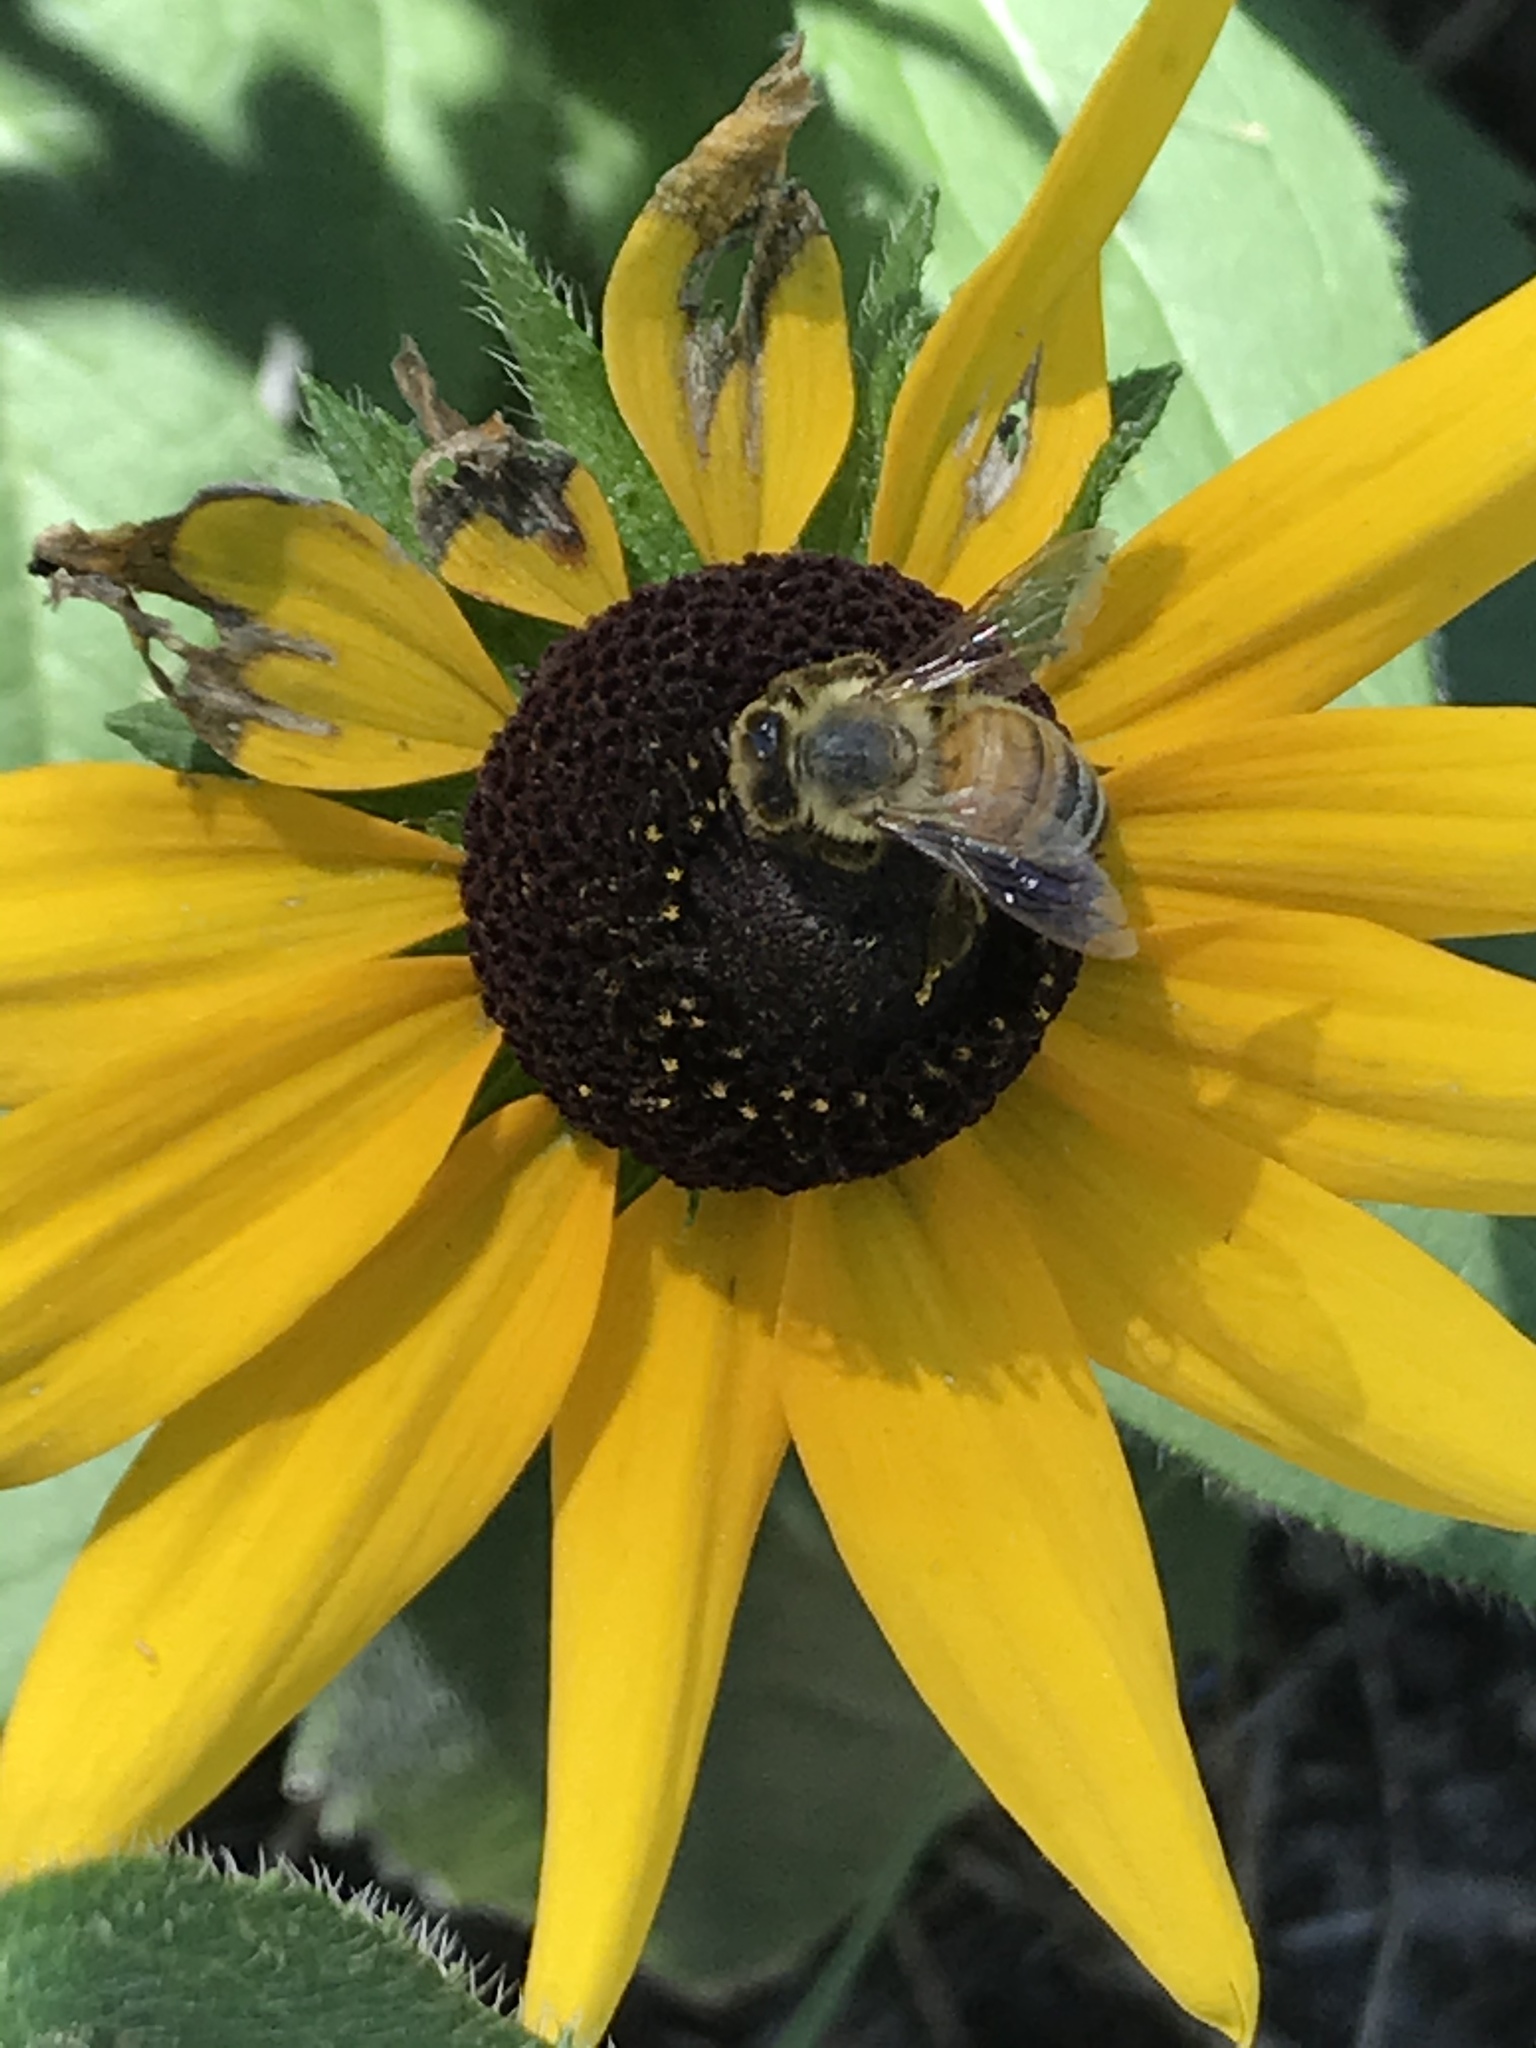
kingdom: Animalia
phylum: Arthropoda
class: Insecta
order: Hymenoptera
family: Apidae
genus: Apis
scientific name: Apis mellifera
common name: Honey bee
